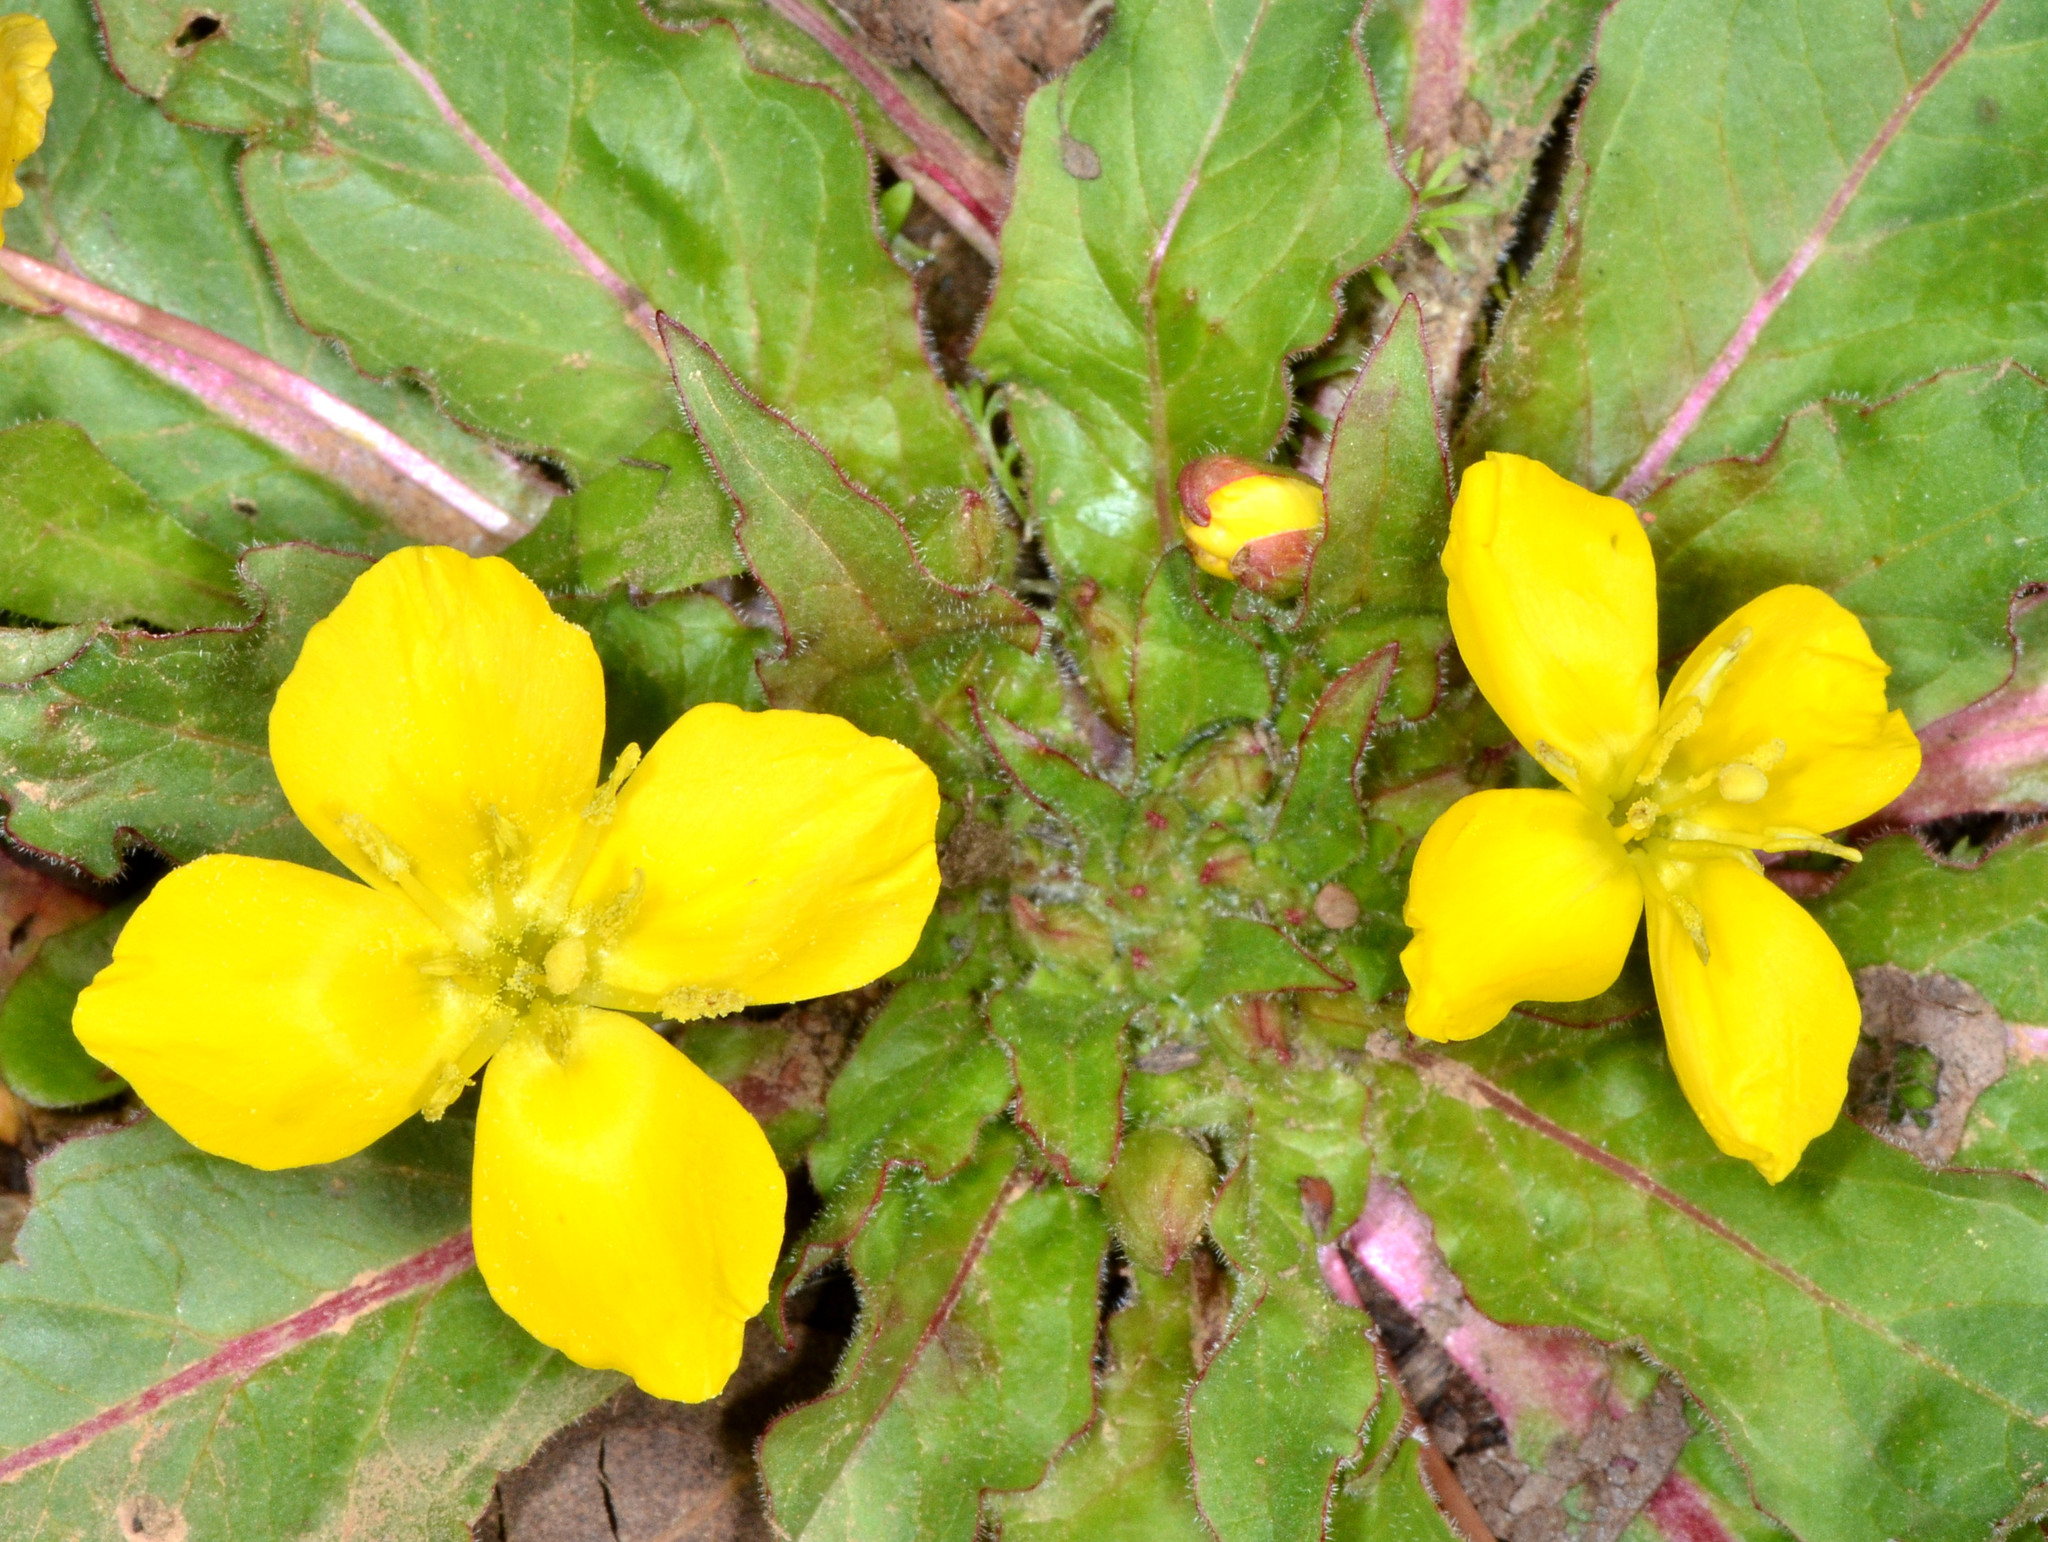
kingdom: Plantae
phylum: Tracheophyta
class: Magnoliopsida
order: Myrtales
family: Onagraceae
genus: Taraxia
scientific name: Taraxia ovata
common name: Goldeneggs
